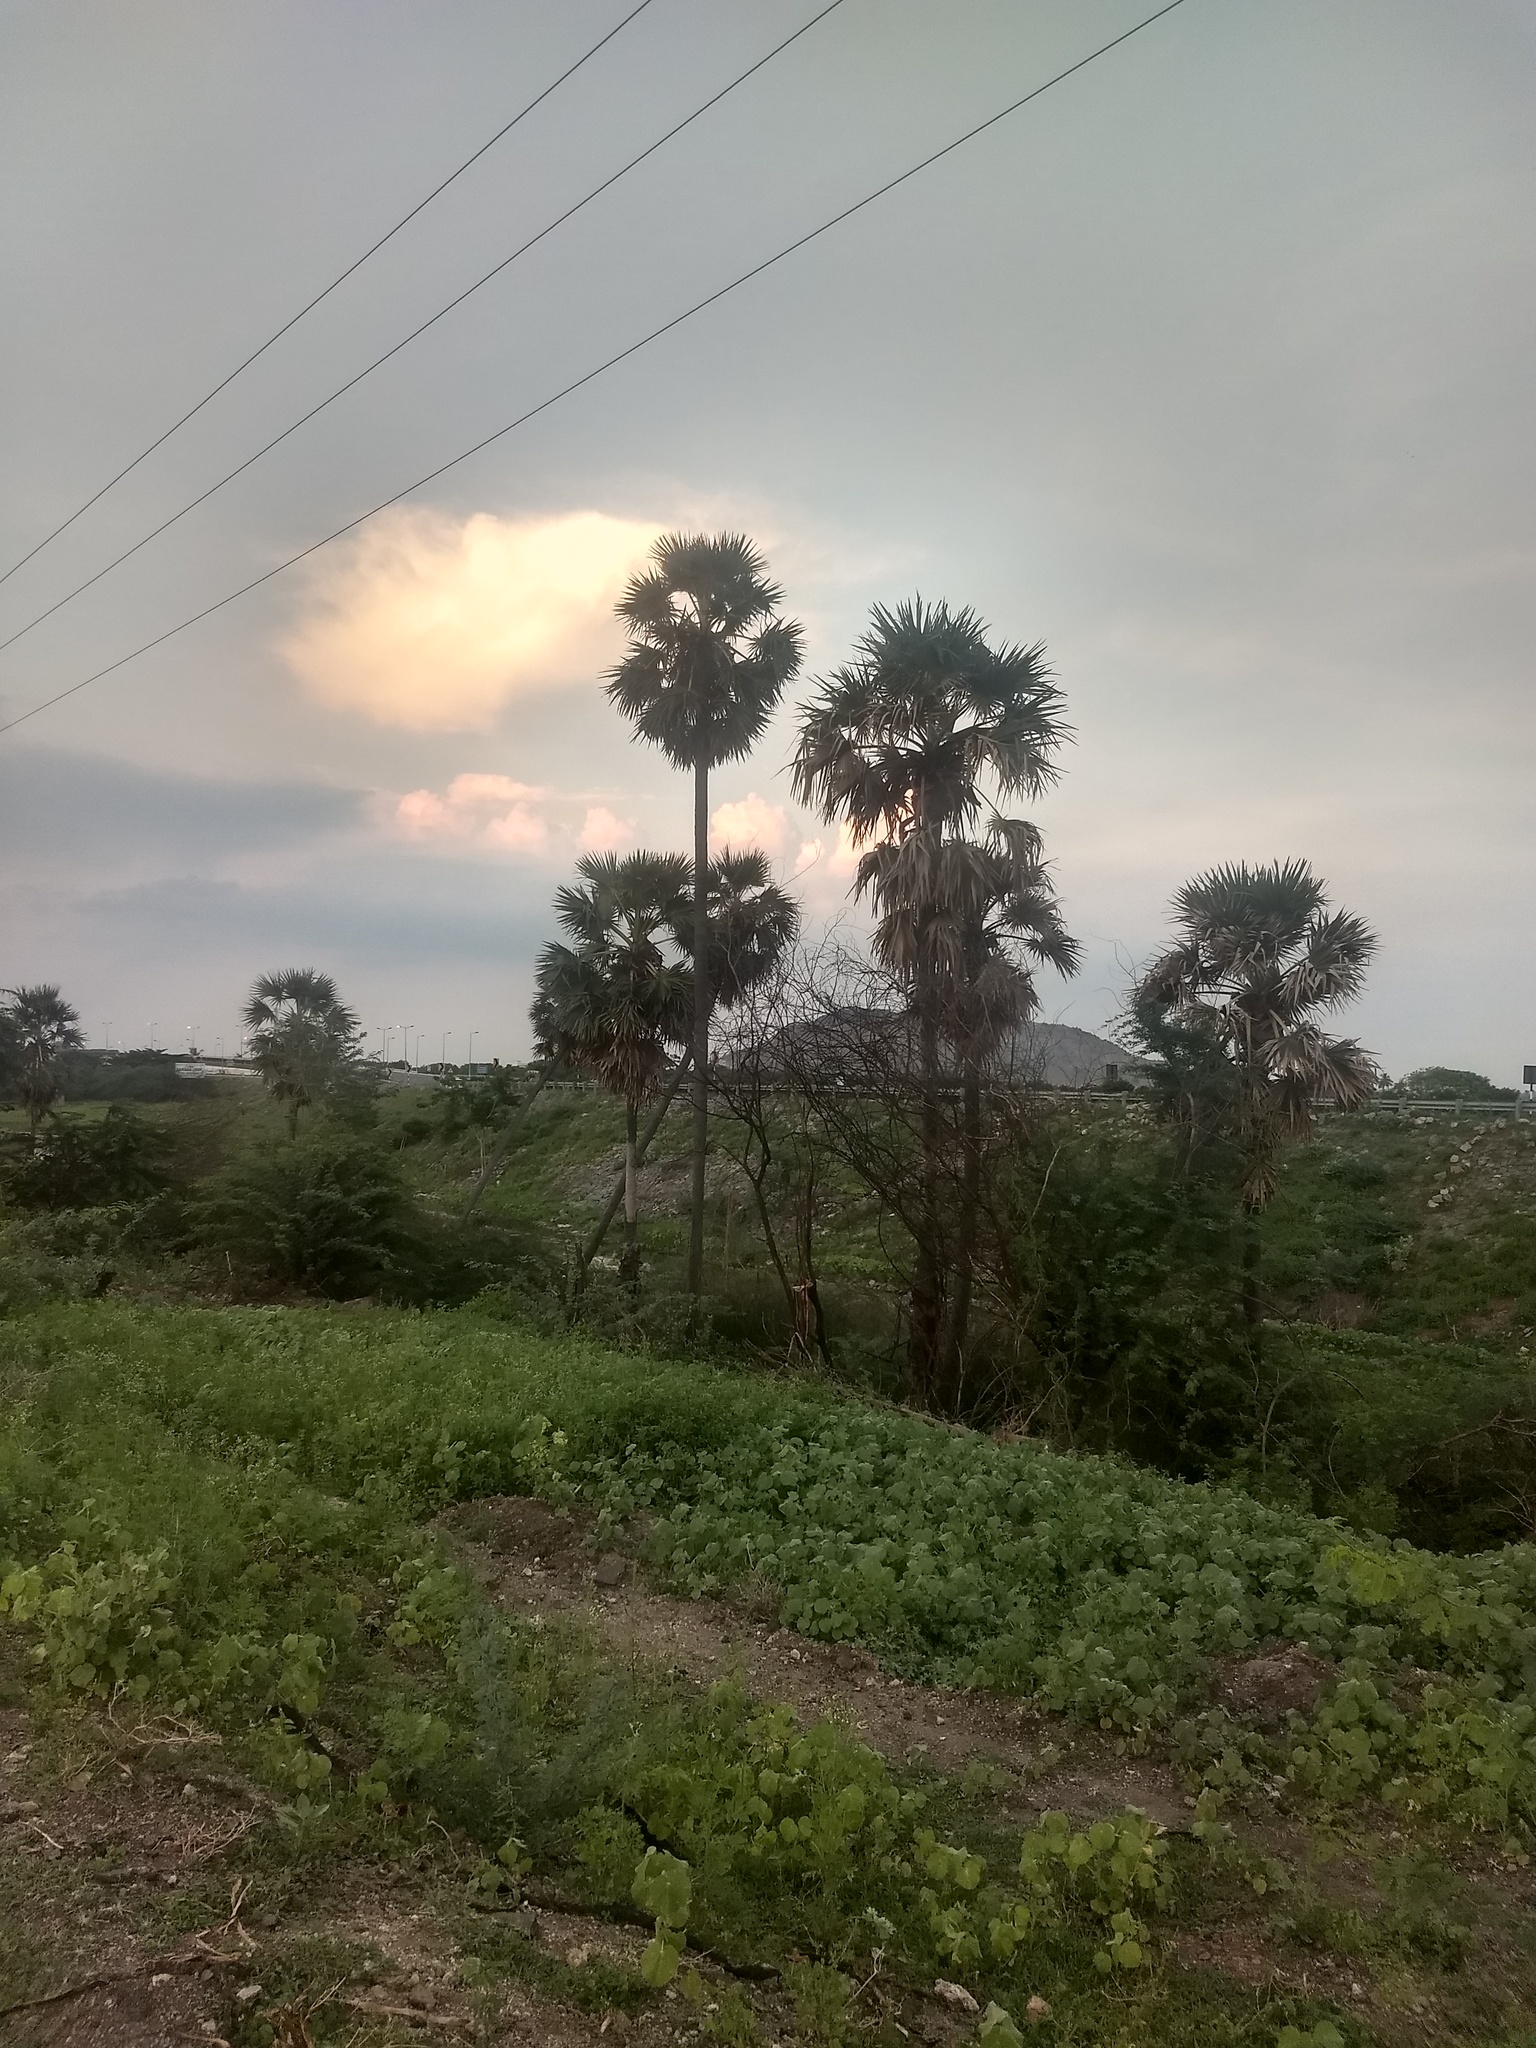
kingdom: Plantae
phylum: Tracheophyta
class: Liliopsida
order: Arecales
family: Arecaceae
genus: Borassus
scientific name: Borassus flabellifer
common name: Palmyra palm
